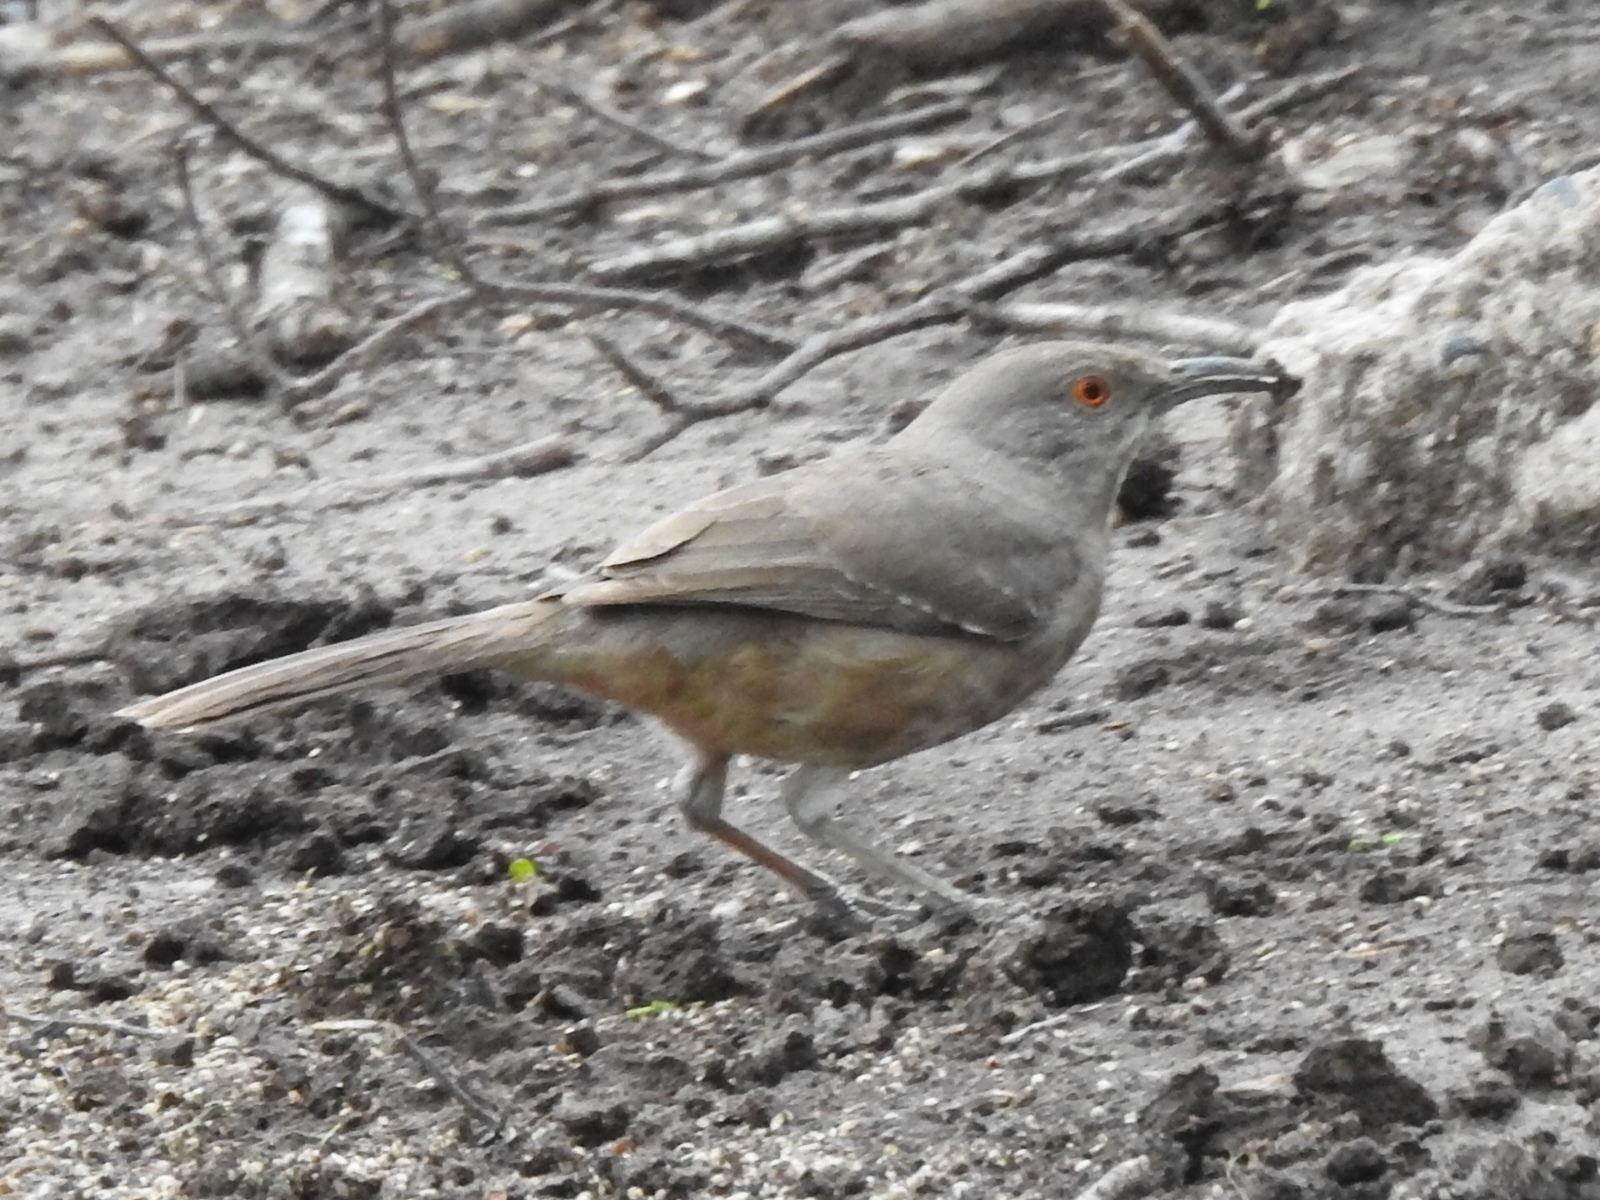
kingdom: Animalia
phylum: Chordata
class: Aves
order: Passeriformes
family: Mimidae
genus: Toxostoma
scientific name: Toxostoma curvirostre
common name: Curve-billed thrasher
